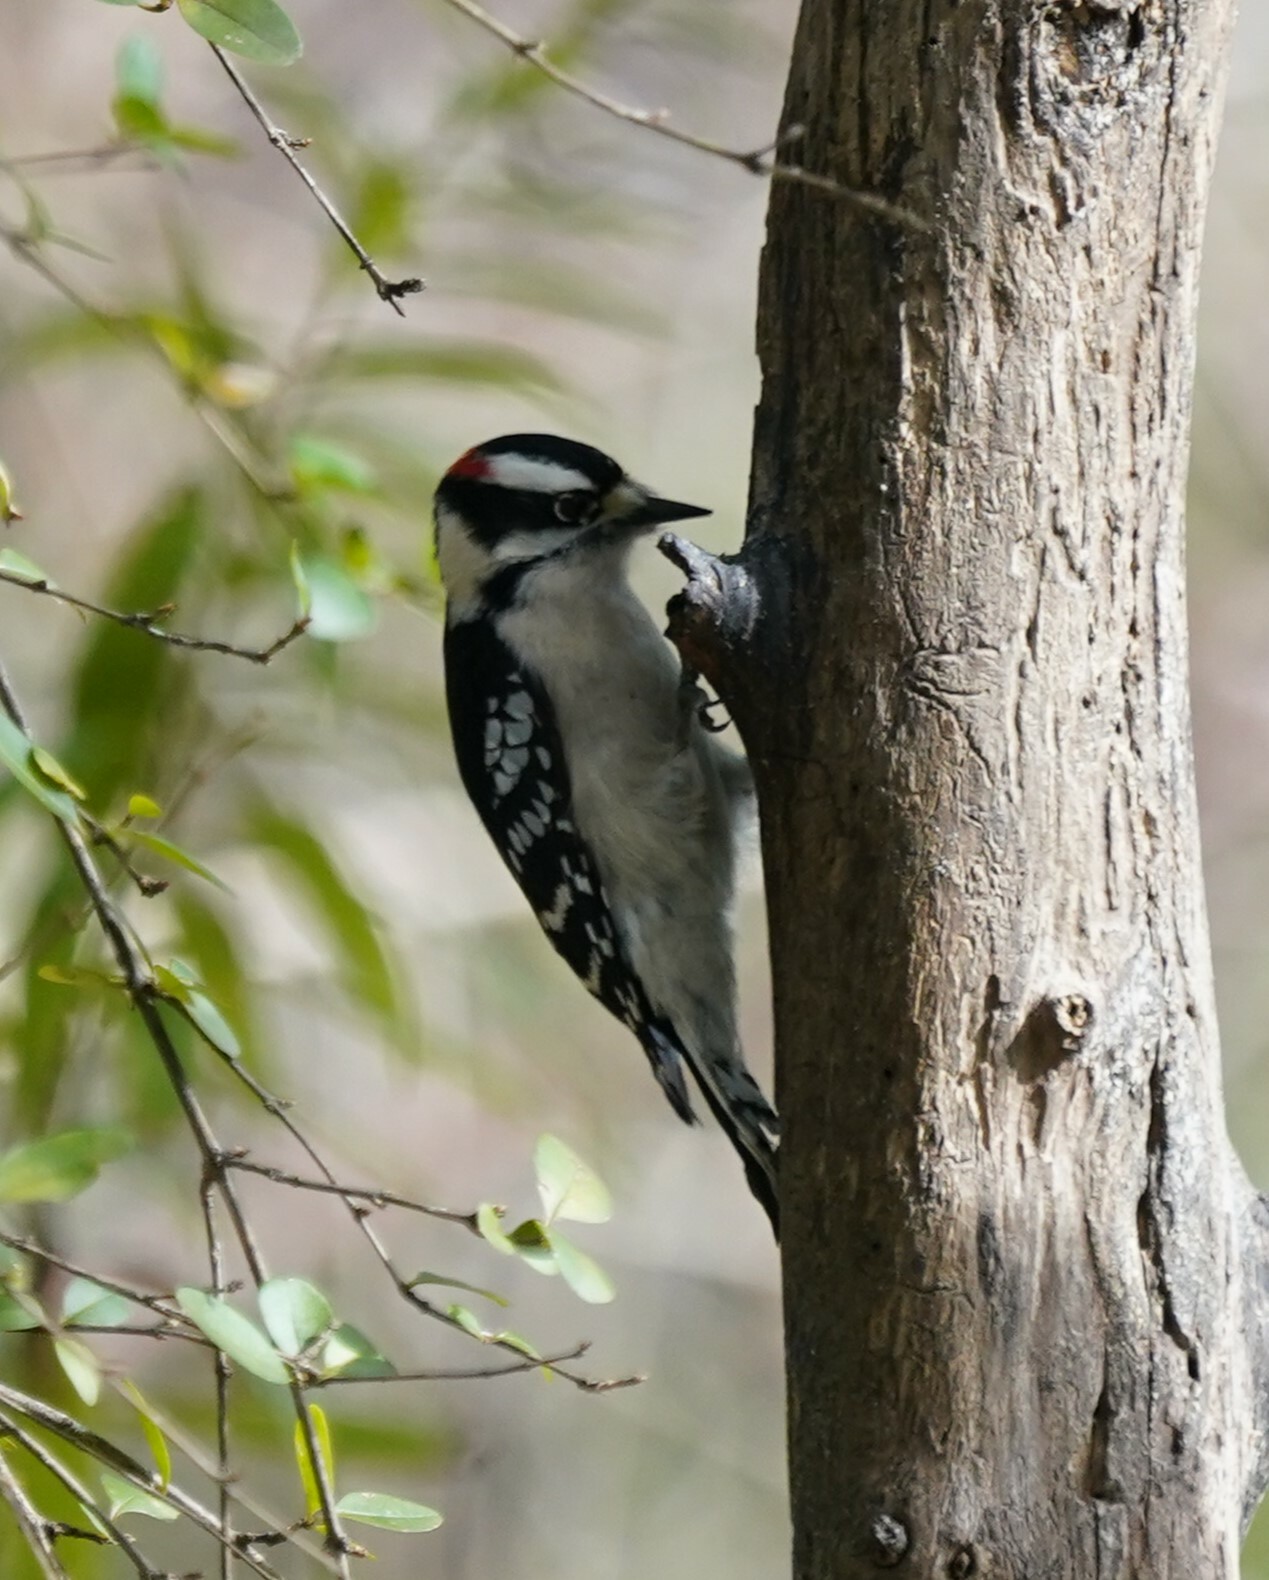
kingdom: Animalia
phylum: Chordata
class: Aves
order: Piciformes
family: Picidae
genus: Dryobates
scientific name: Dryobates pubescens
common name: Downy woodpecker
